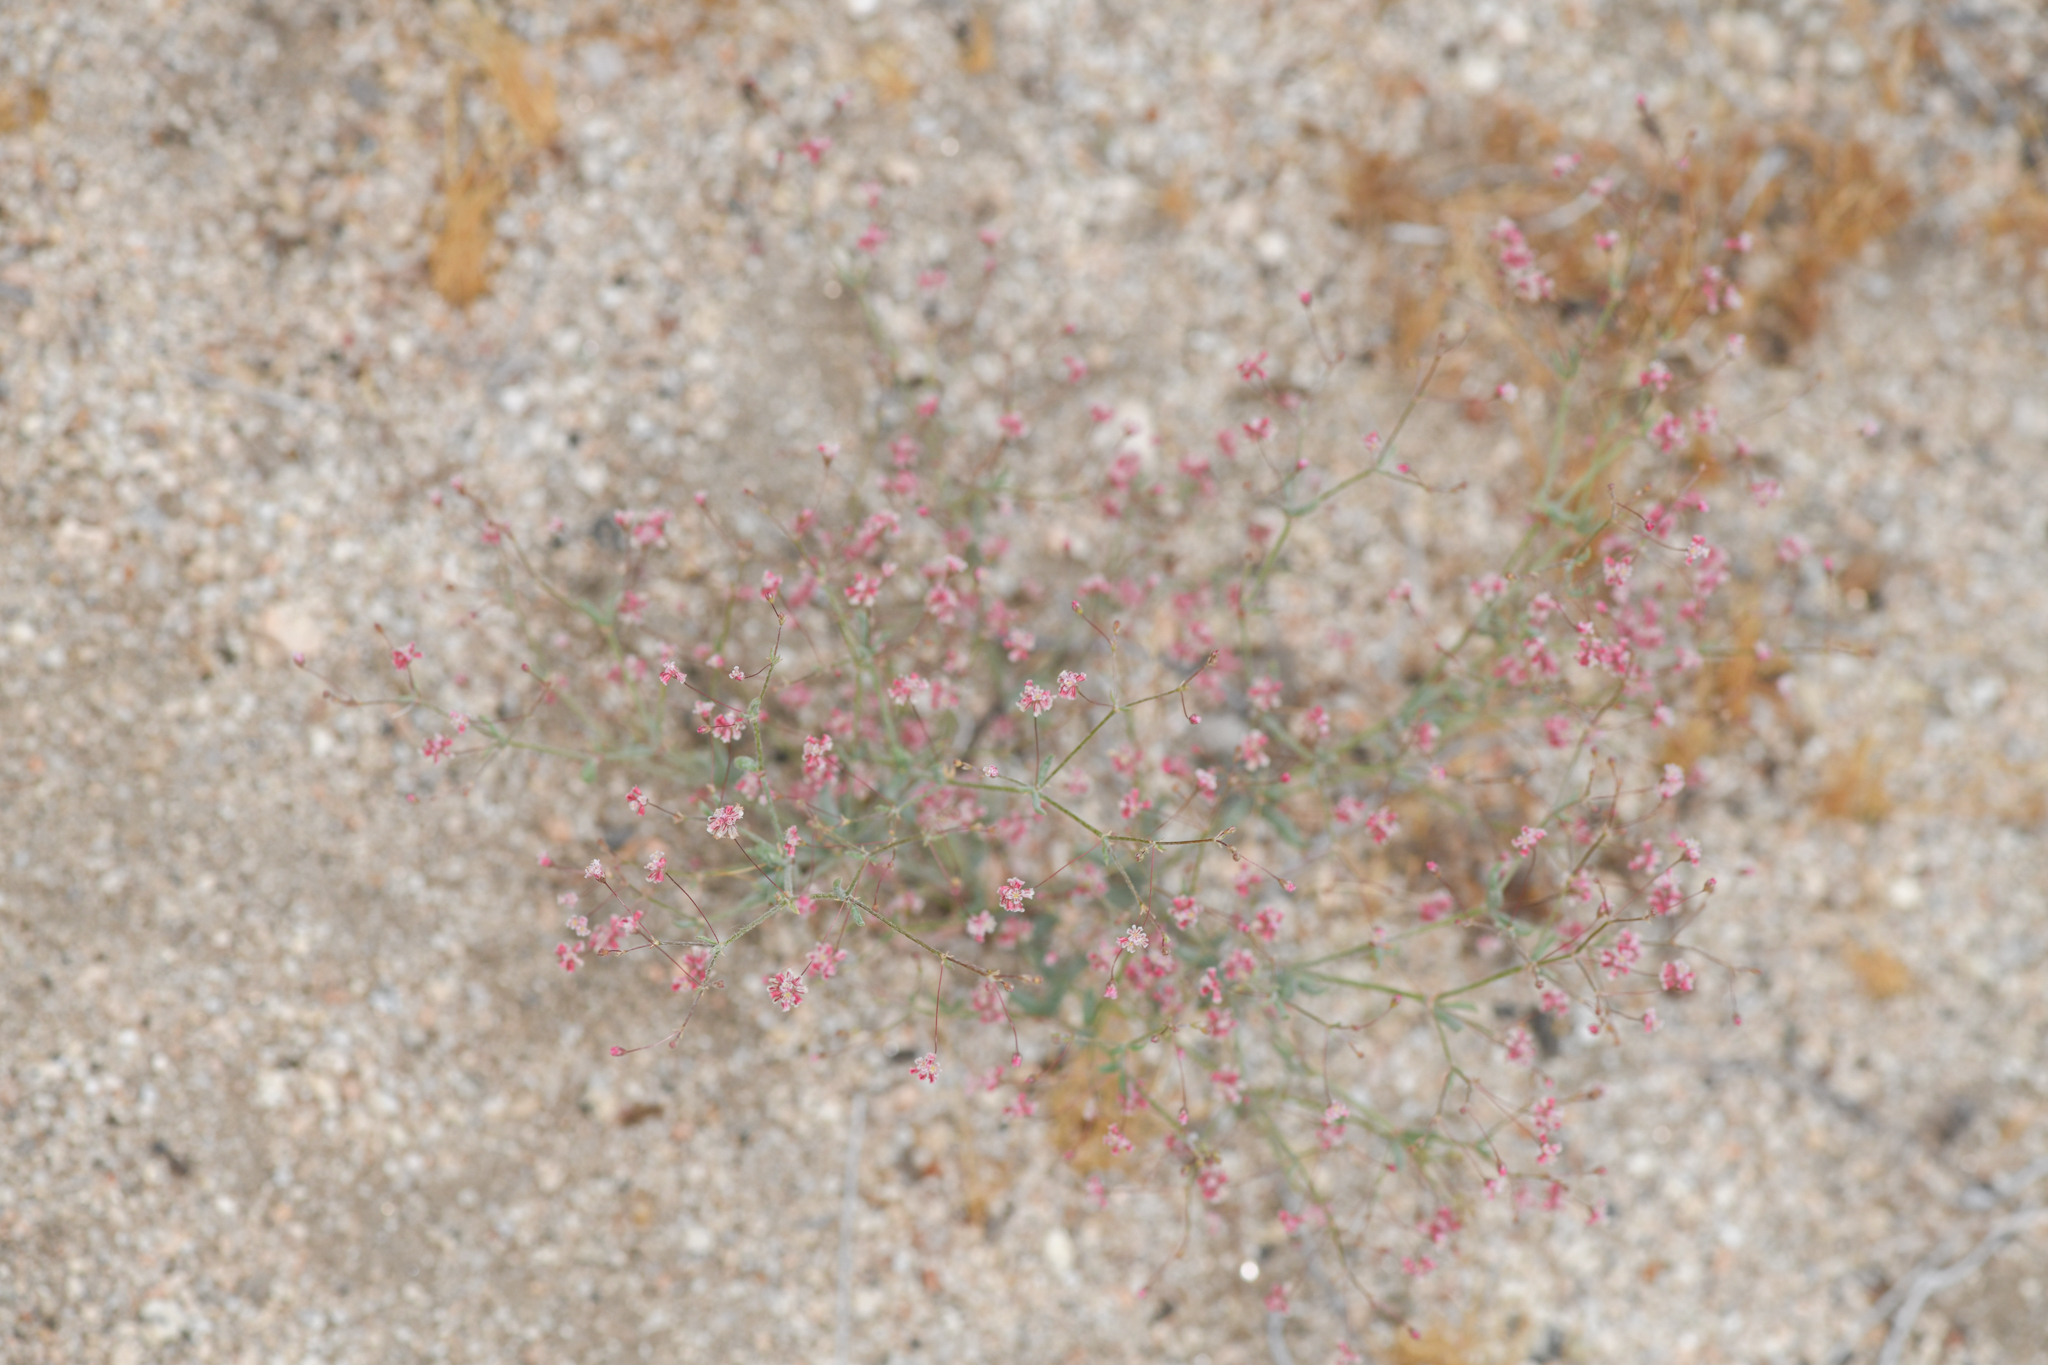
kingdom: Plantae
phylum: Tracheophyta
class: Magnoliopsida
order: Caryophyllales
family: Polygonaceae
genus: Eriogonum
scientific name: Eriogonum gracillimum
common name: Rose-and-white wild buckwheat
